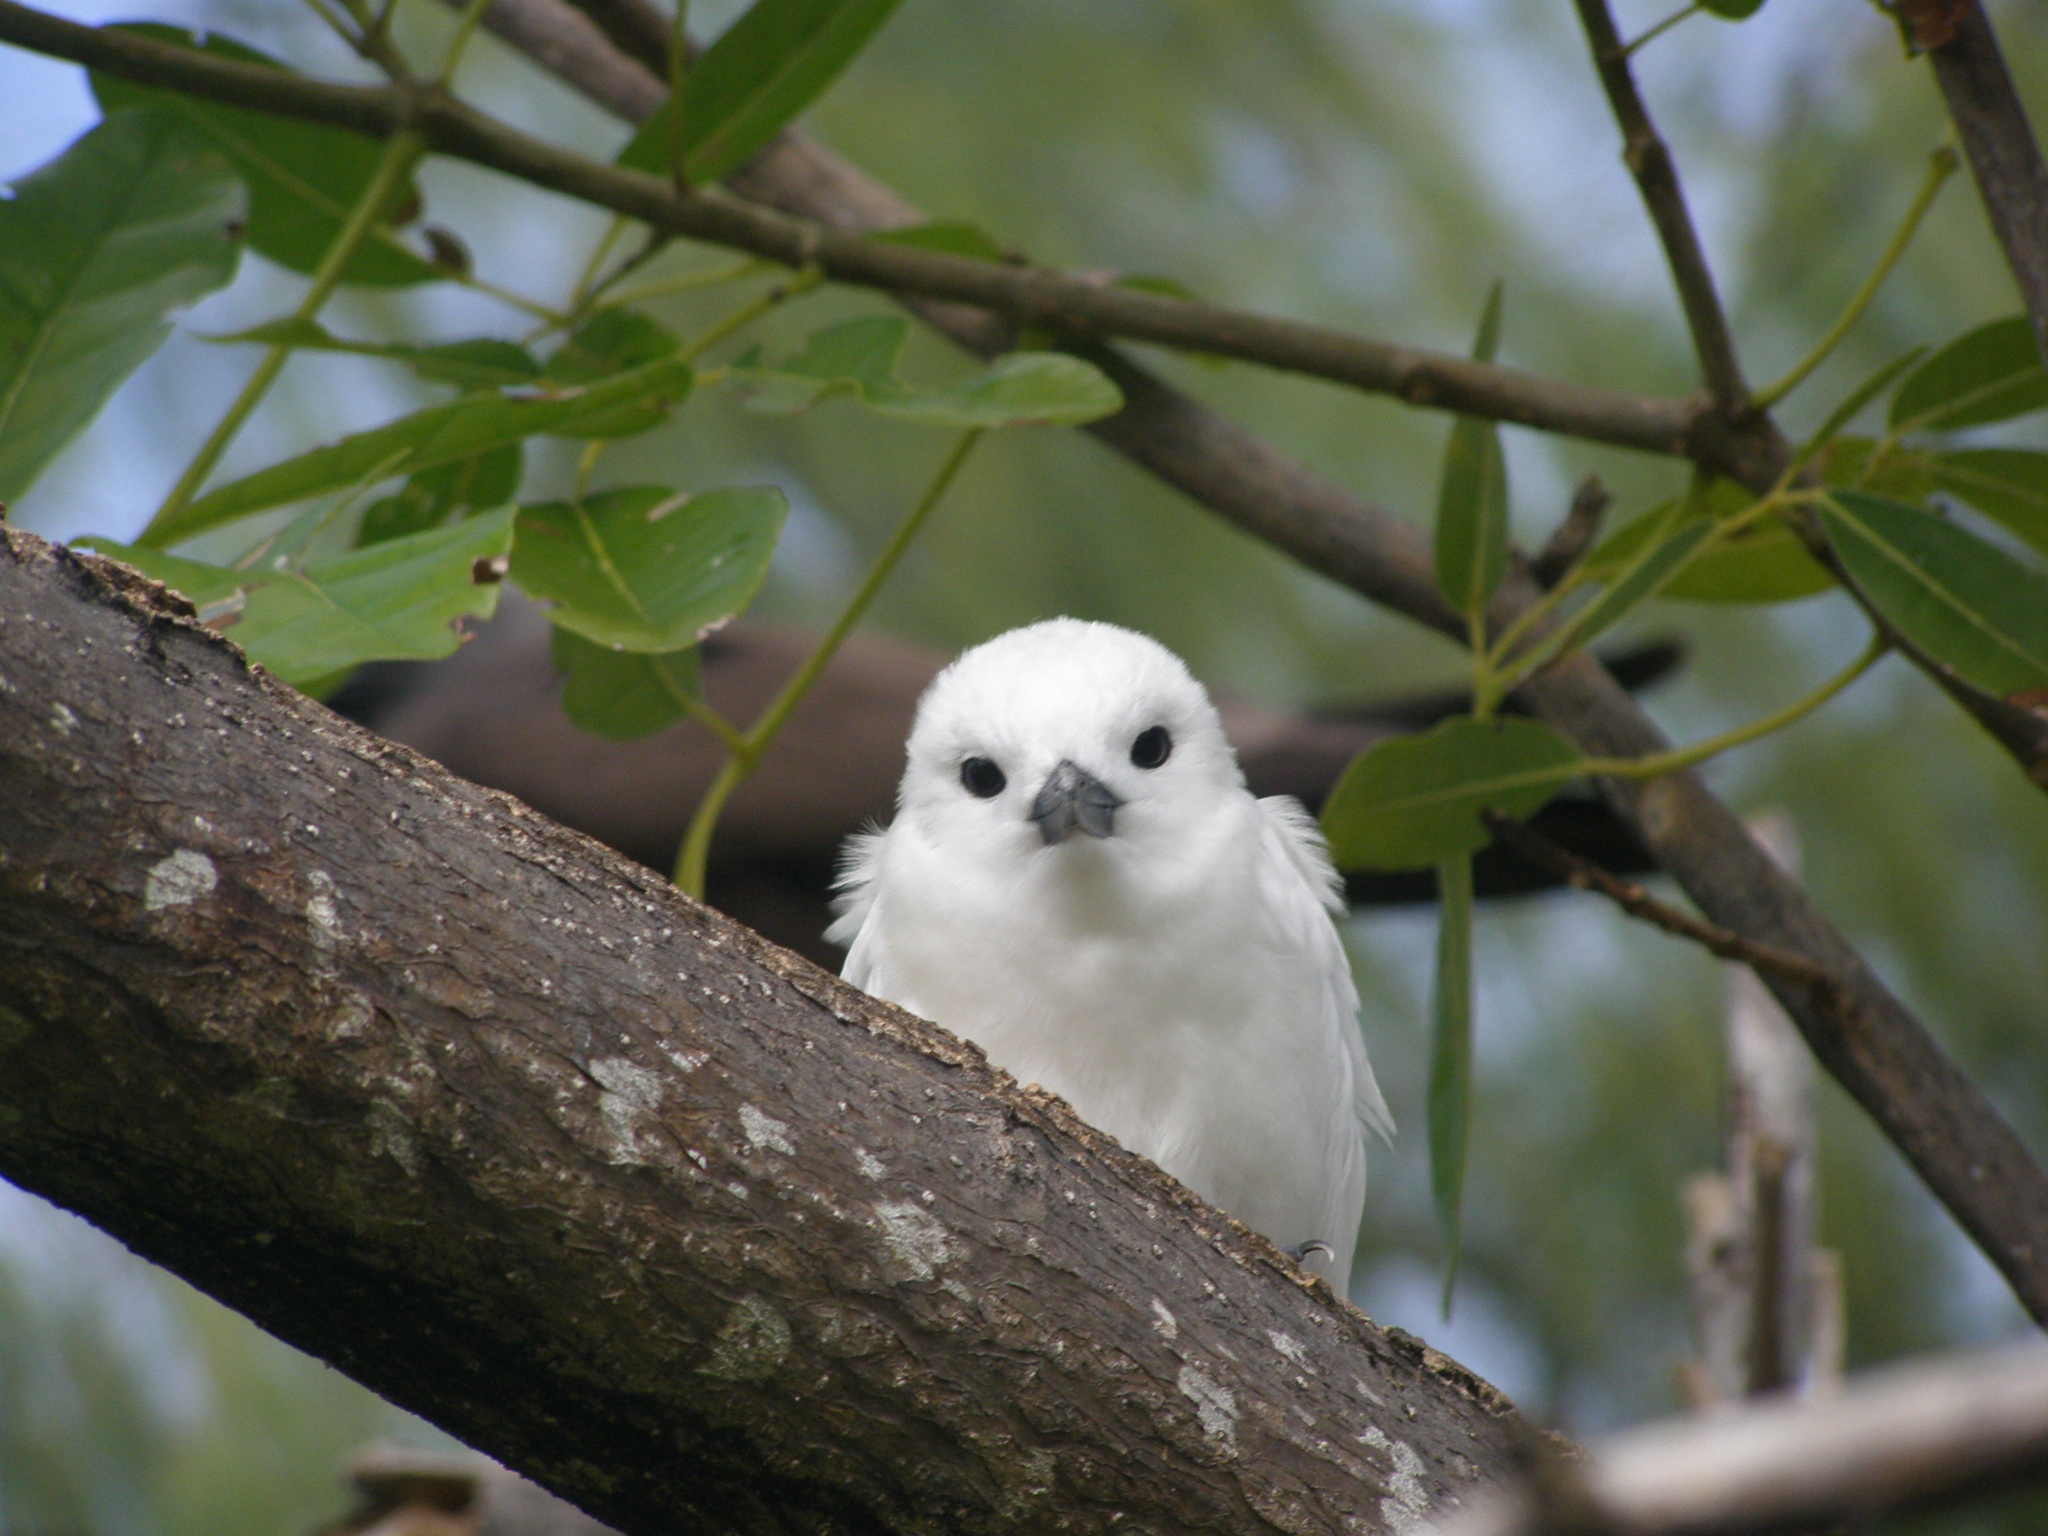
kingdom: Animalia
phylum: Chordata
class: Aves
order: Charadriiformes
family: Laridae
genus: Gygis
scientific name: Gygis alba
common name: White tern
